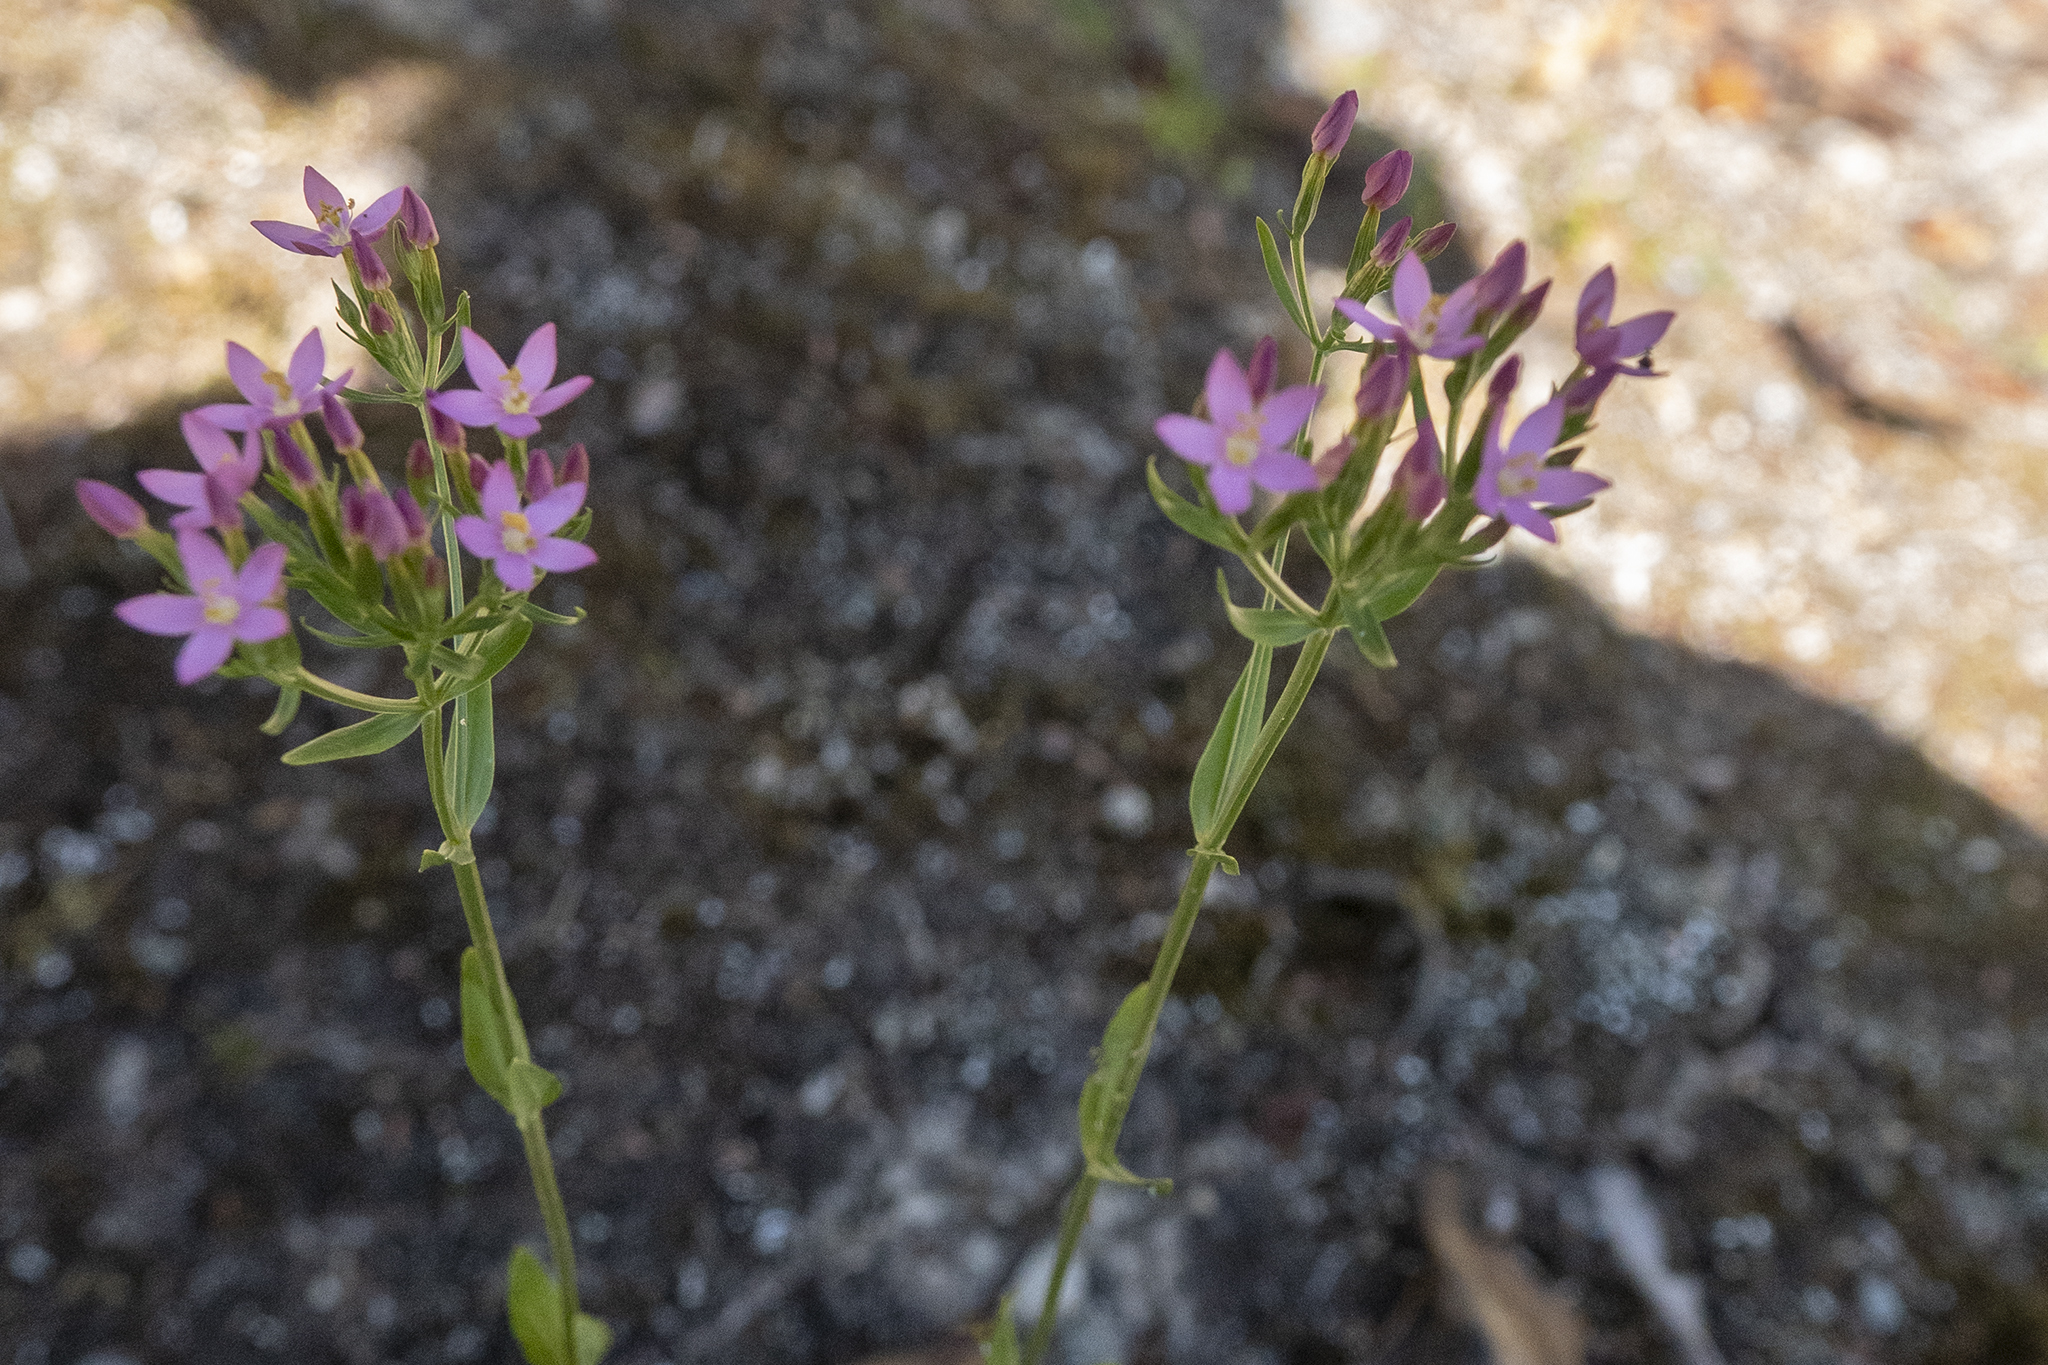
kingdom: Plantae
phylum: Tracheophyta
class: Magnoliopsida
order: Gentianales
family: Gentianaceae
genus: Centaurium
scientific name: Centaurium erythraea
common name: Common centaury
